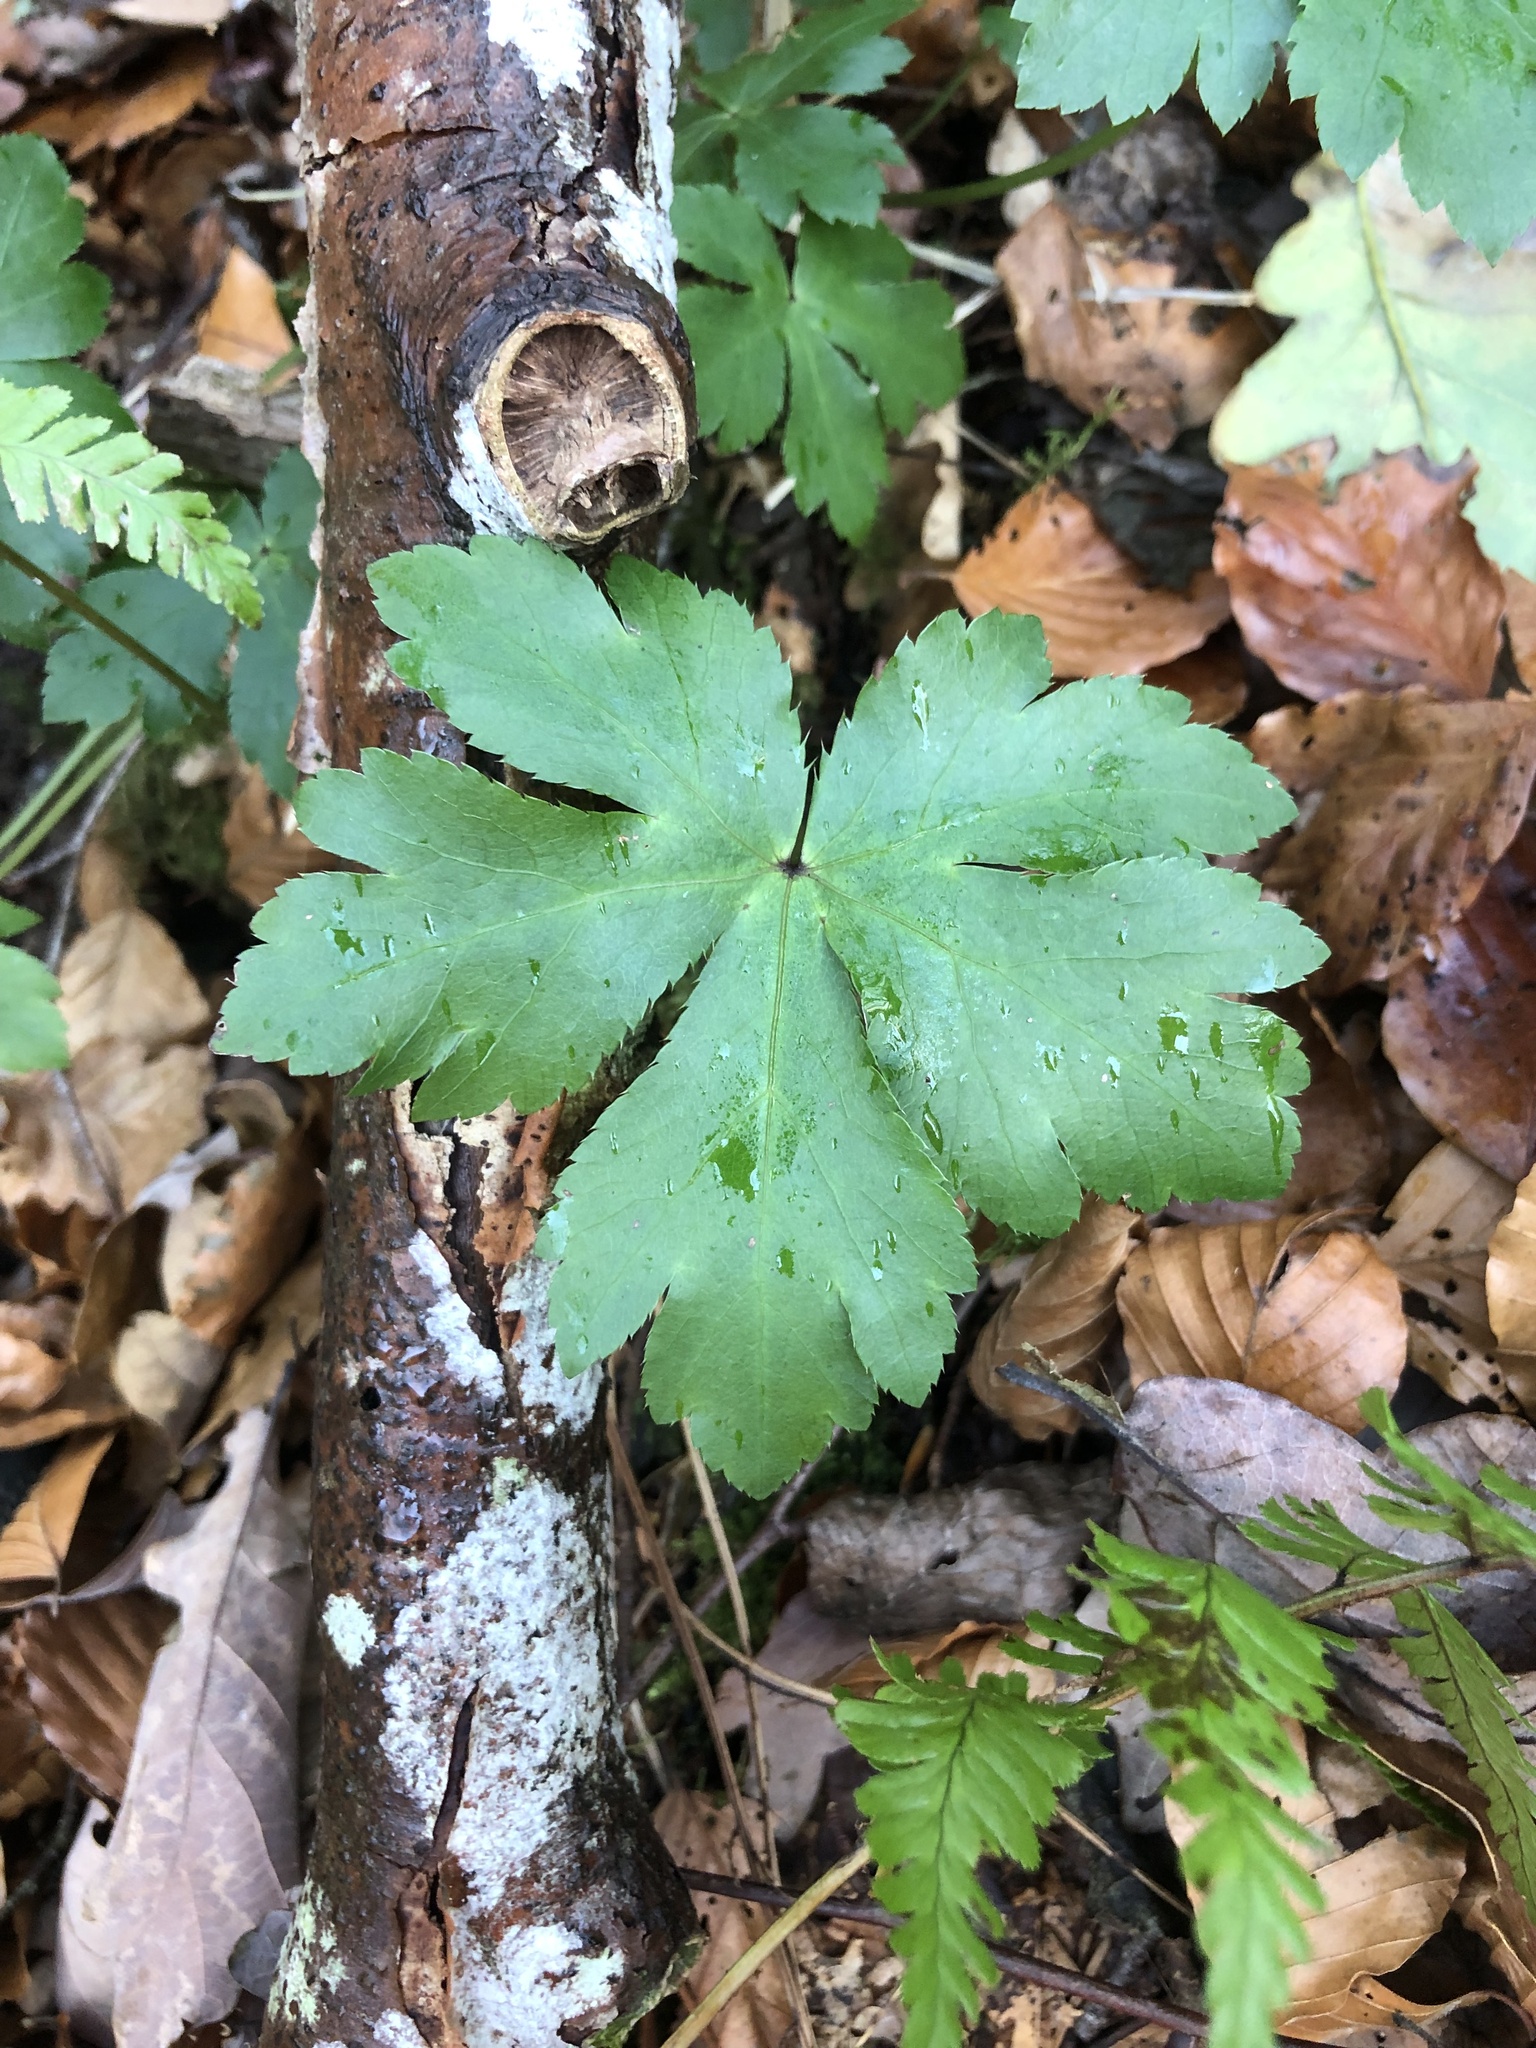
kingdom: Plantae
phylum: Tracheophyta
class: Magnoliopsida
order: Apiales
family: Apiaceae
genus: Sanicula
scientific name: Sanicula europaea
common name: Sanicle
